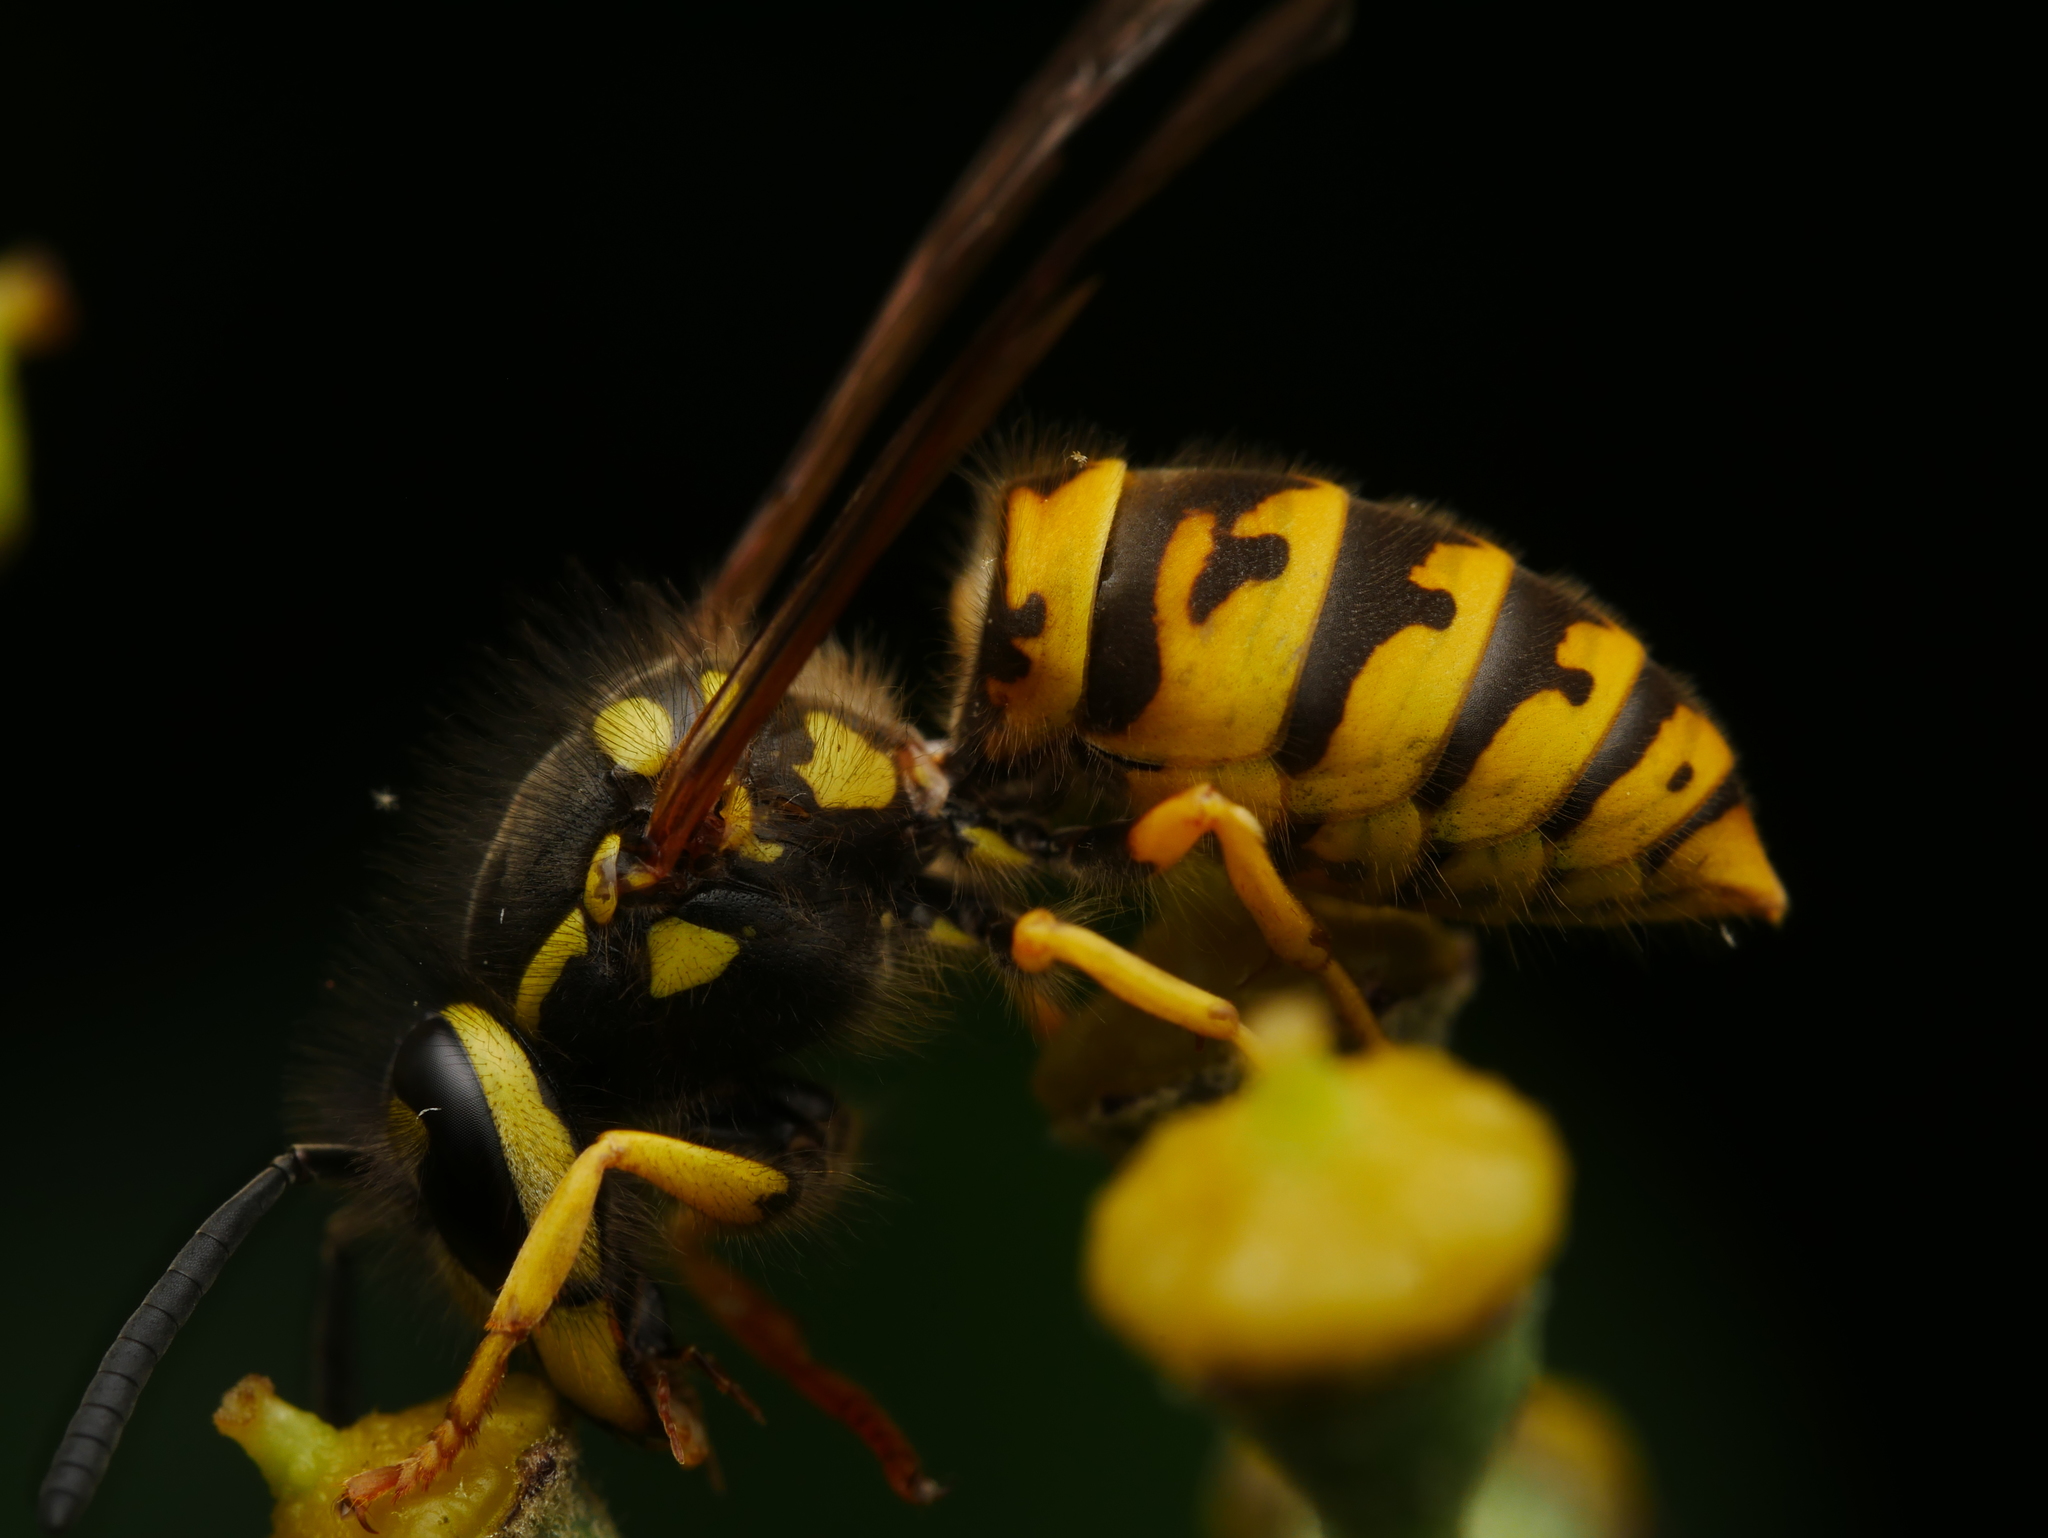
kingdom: Animalia
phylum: Arthropoda
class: Insecta
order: Hymenoptera
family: Vespidae
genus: Vespula
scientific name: Vespula germanica
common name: German wasp
